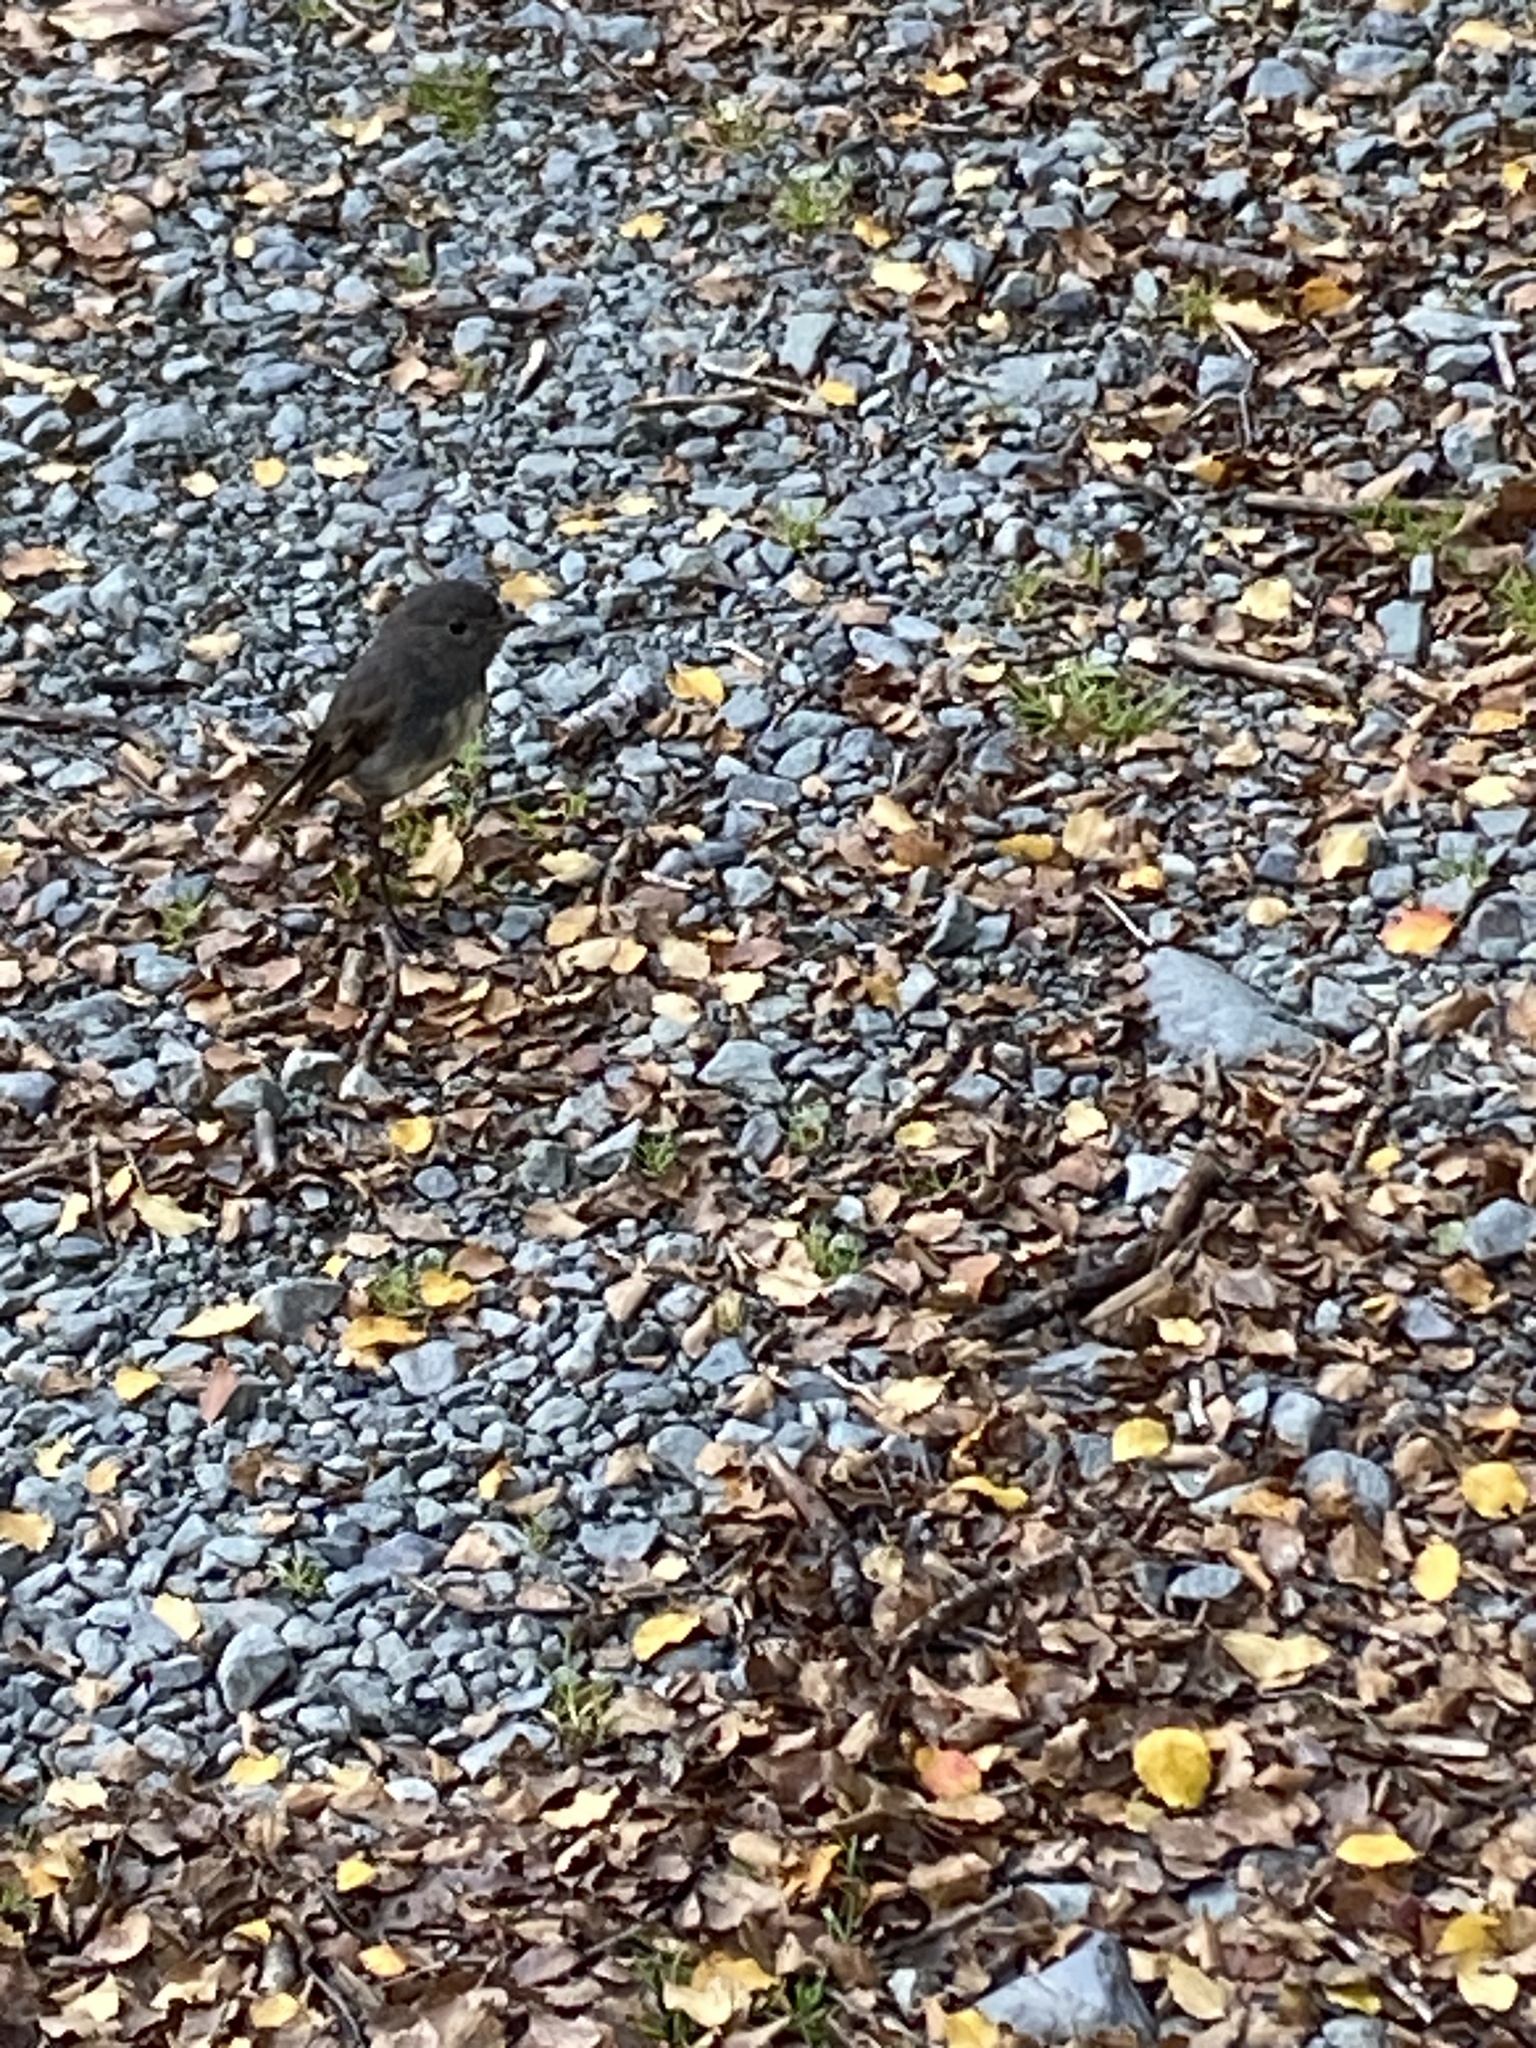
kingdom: Animalia
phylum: Chordata
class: Aves
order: Passeriformes
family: Petroicidae
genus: Petroica
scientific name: Petroica australis
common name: New zealand robin
